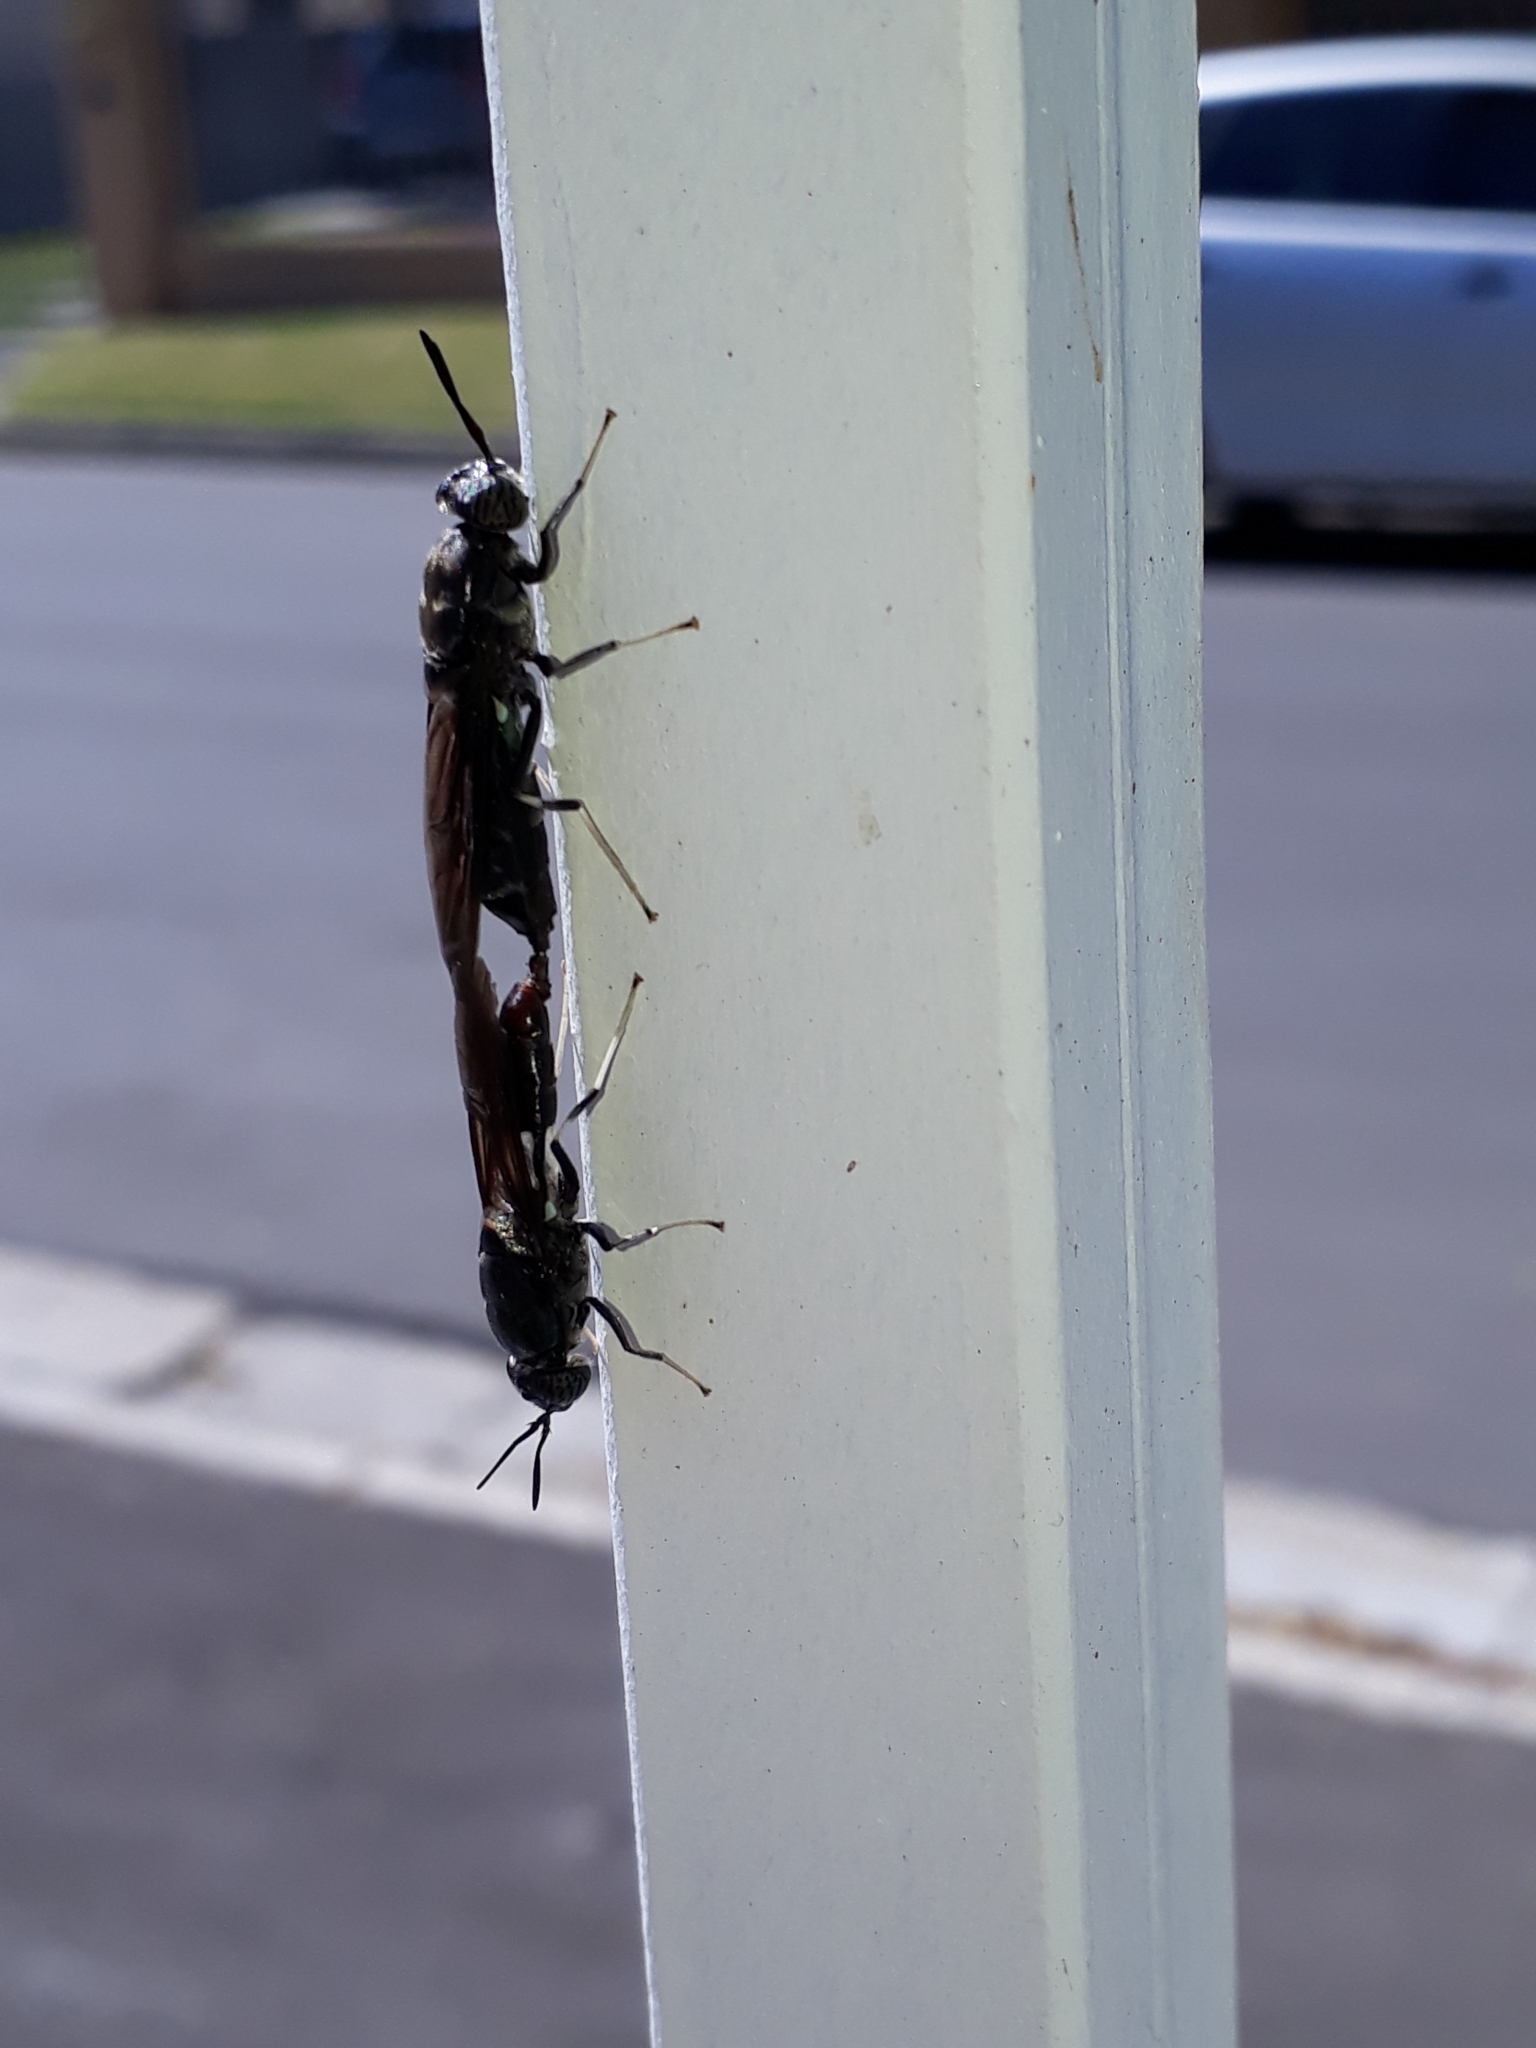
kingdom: Animalia
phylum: Arthropoda
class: Insecta
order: Diptera
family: Stratiomyidae
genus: Hermetia
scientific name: Hermetia illucens
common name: Black soldier fly
